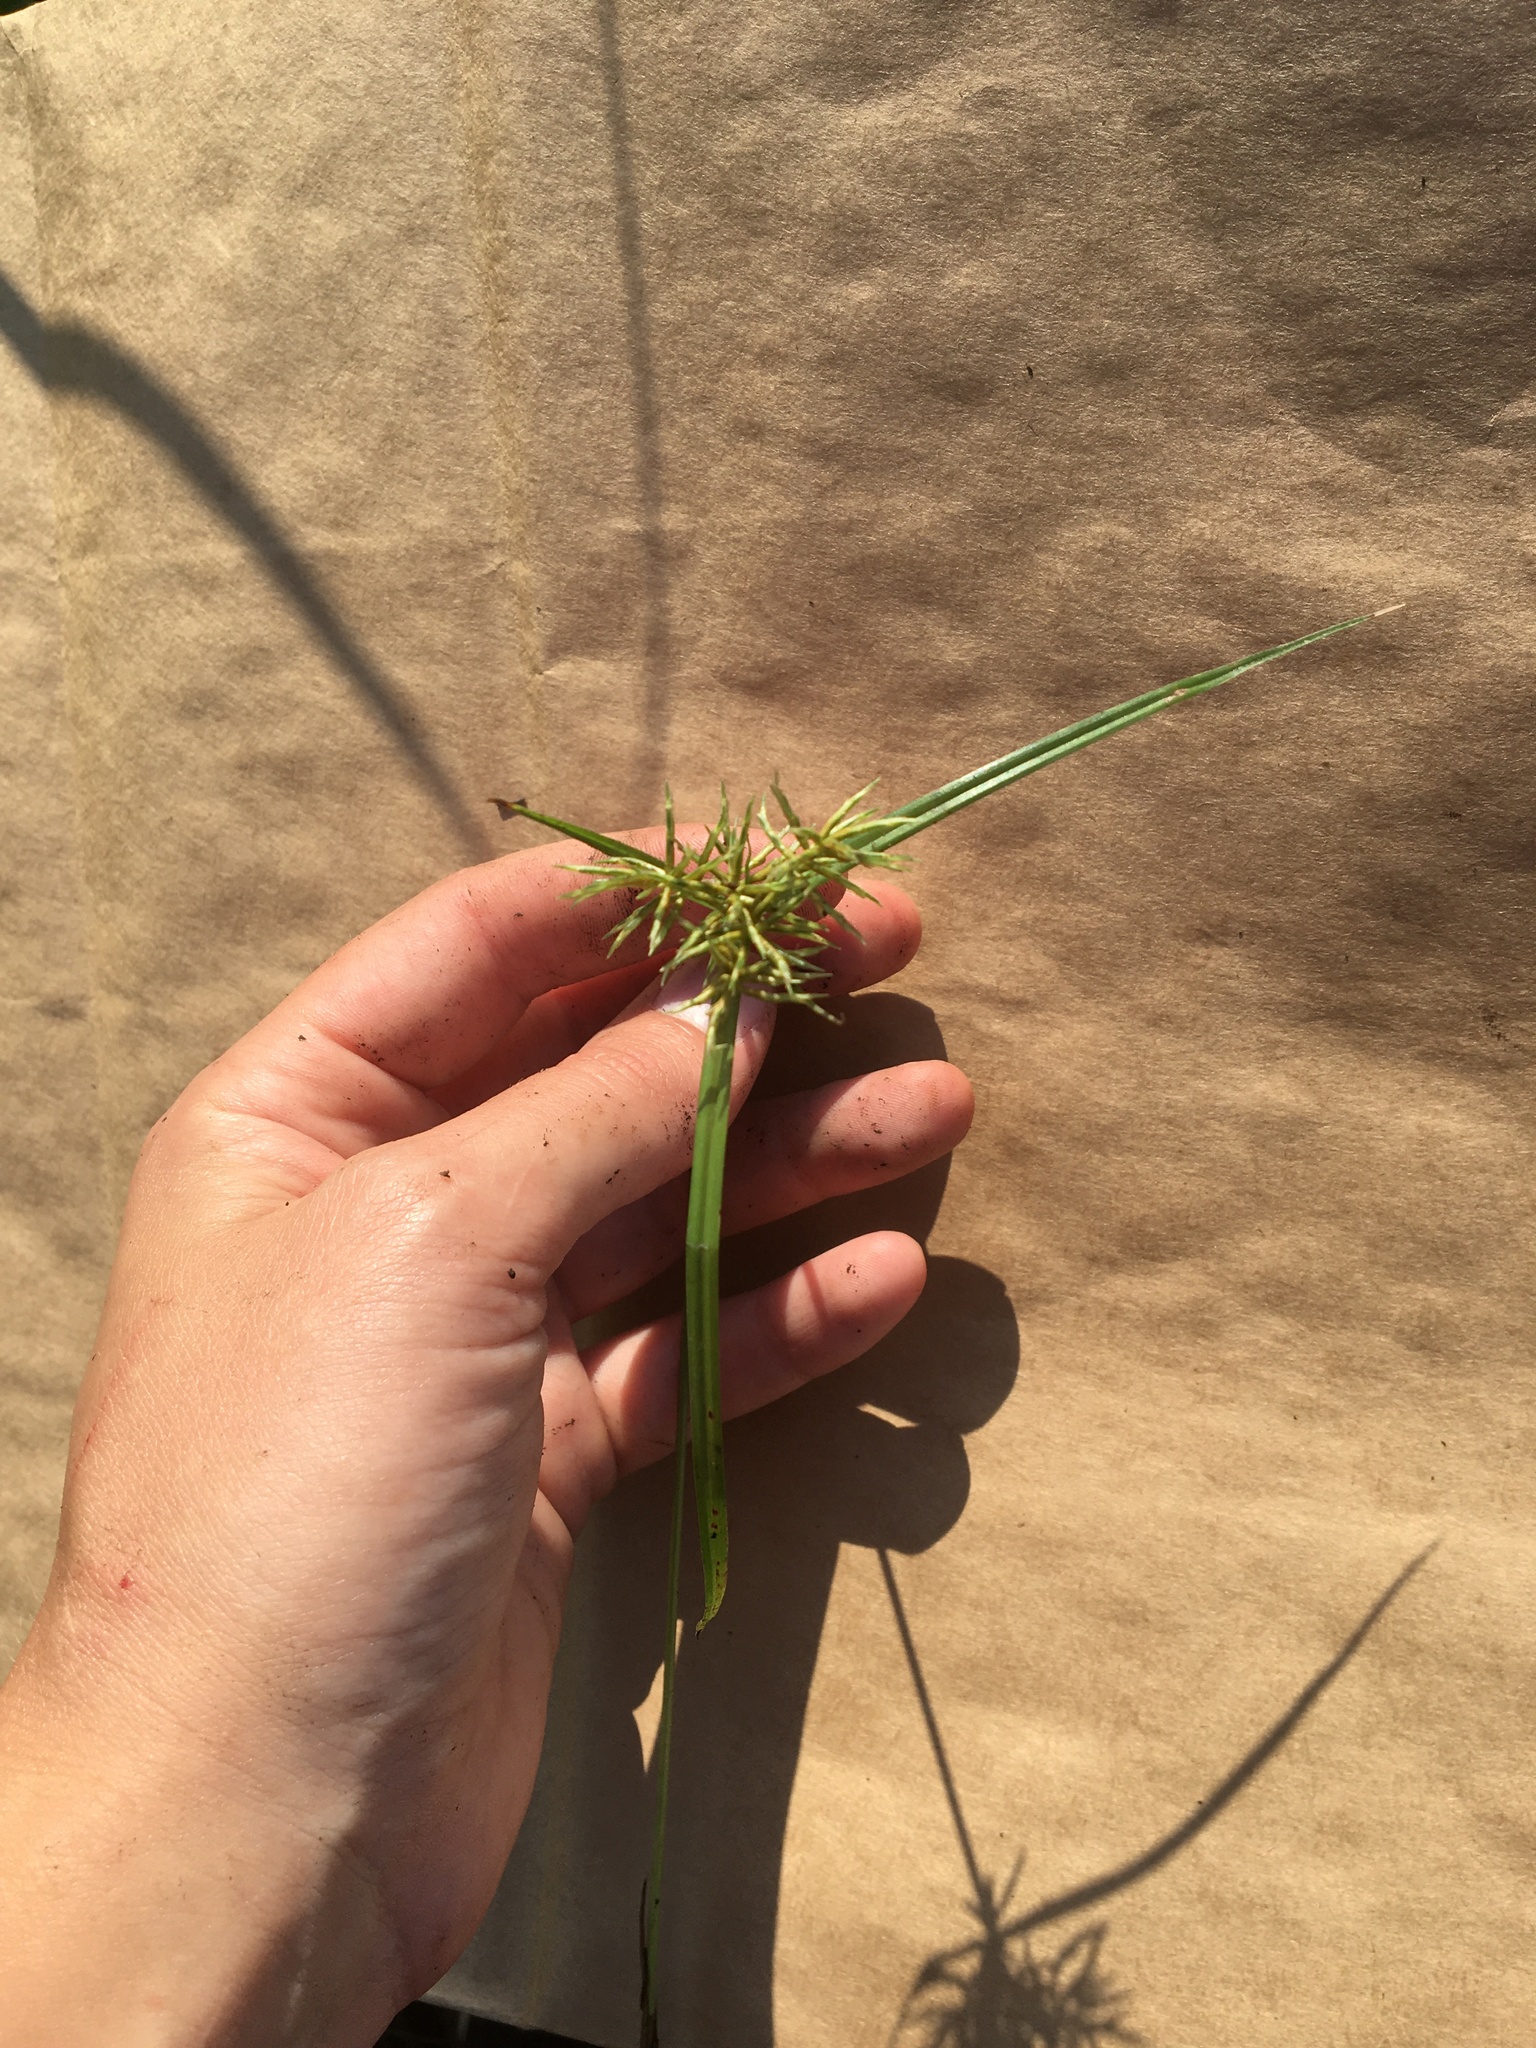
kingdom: Plantae
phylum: Tracheophyta
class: Liliopsida
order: Poales
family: Cyperaceae
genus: Cyperus
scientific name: Cyperus odoratus
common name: Fragrant flatsedge
